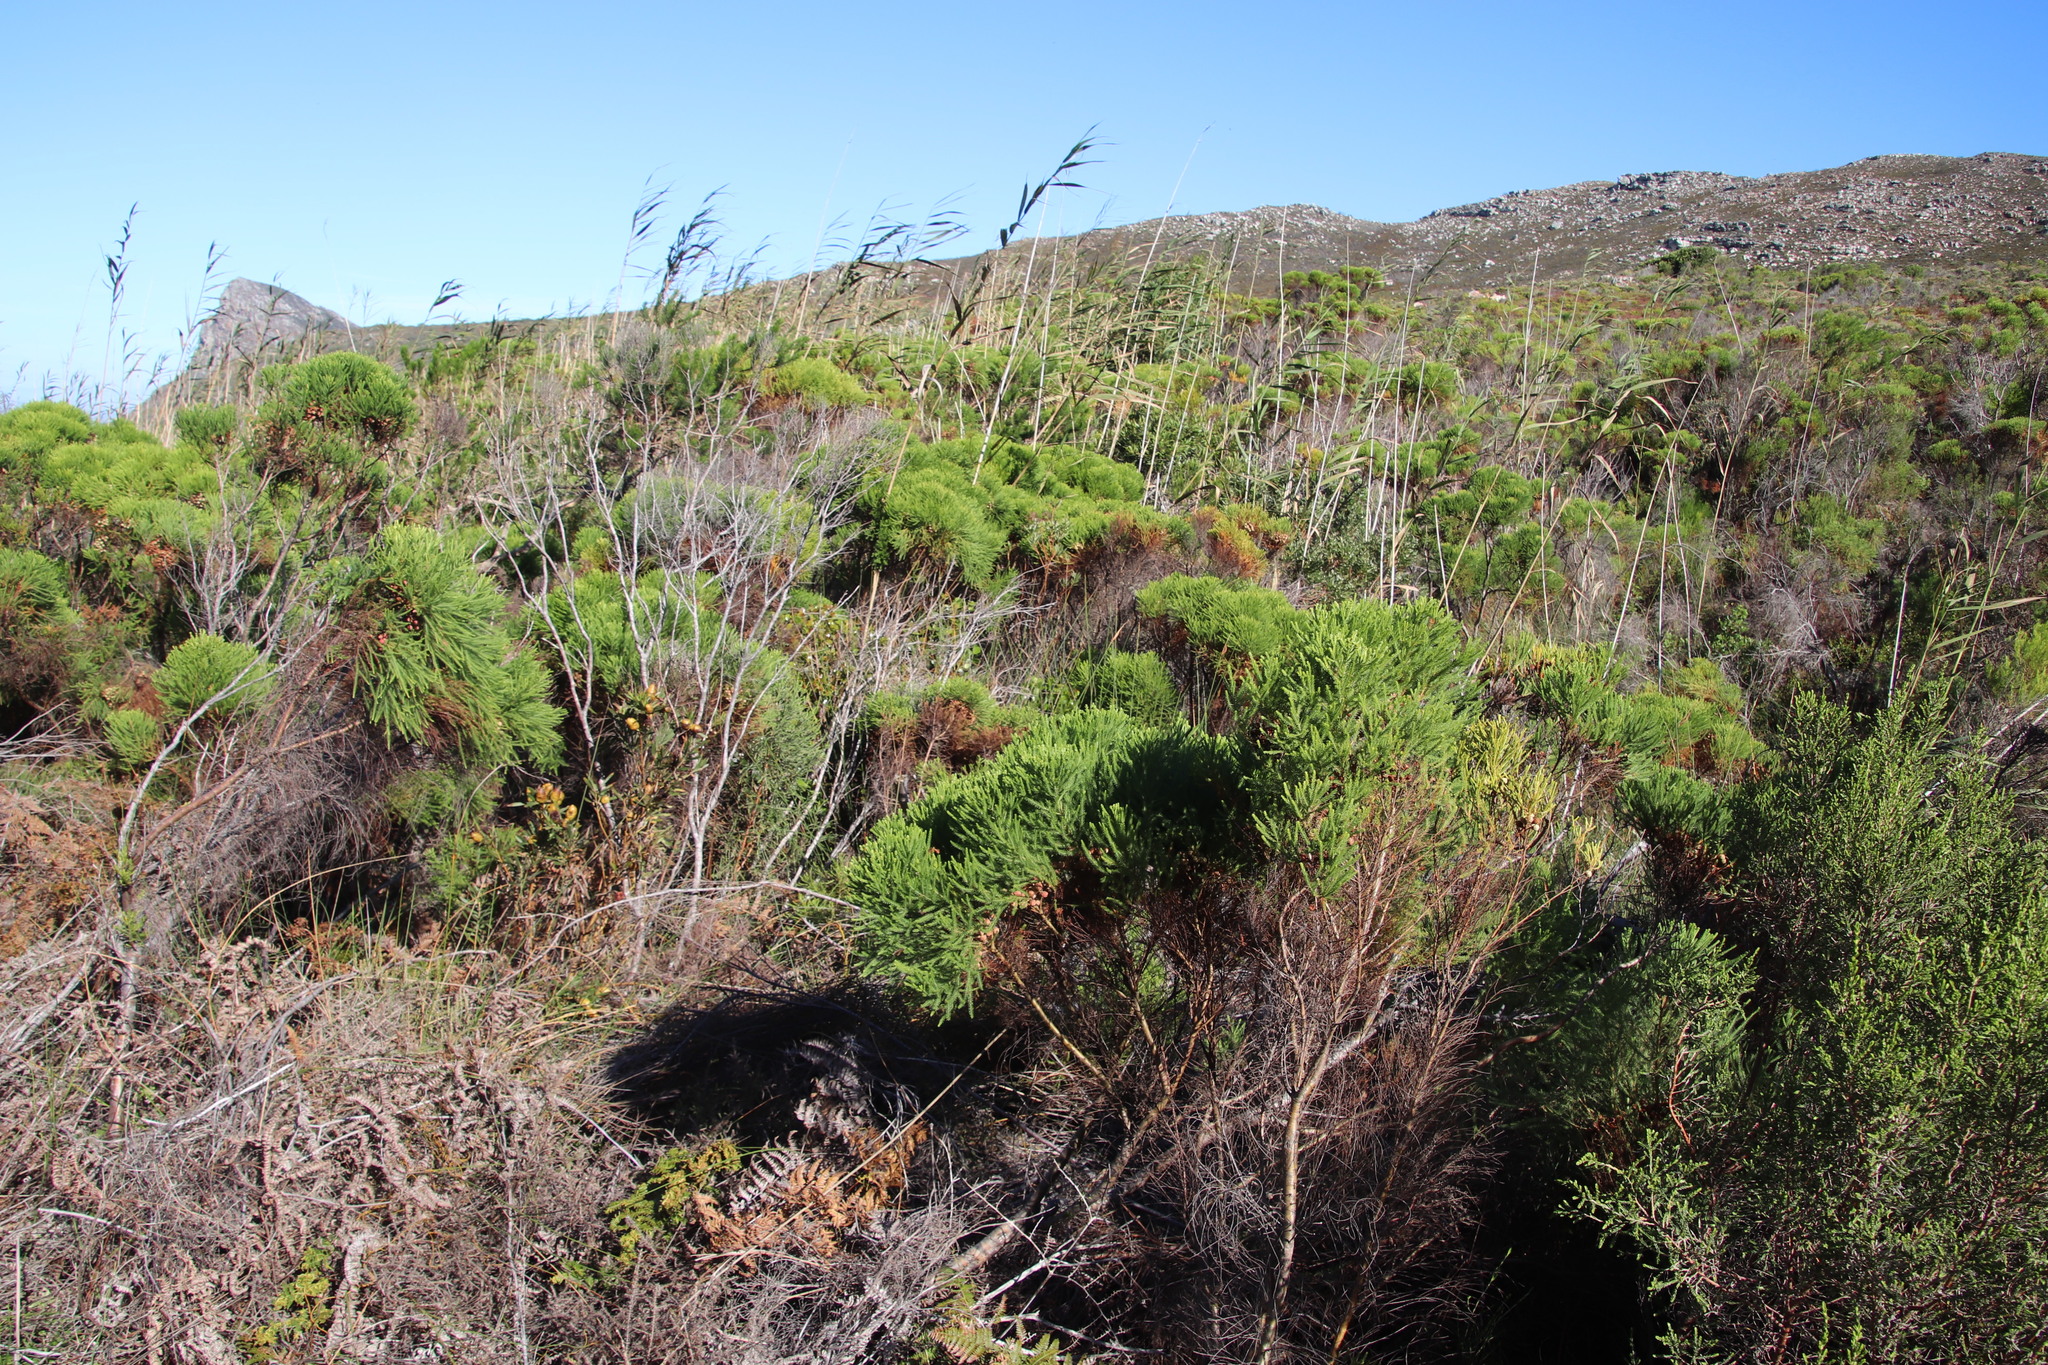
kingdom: Plantae
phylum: Tracheophyta
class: Magnoliopsida
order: Bruniales
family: Bruniaceae
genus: Berzelia
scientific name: Berzelia lanuginosa
